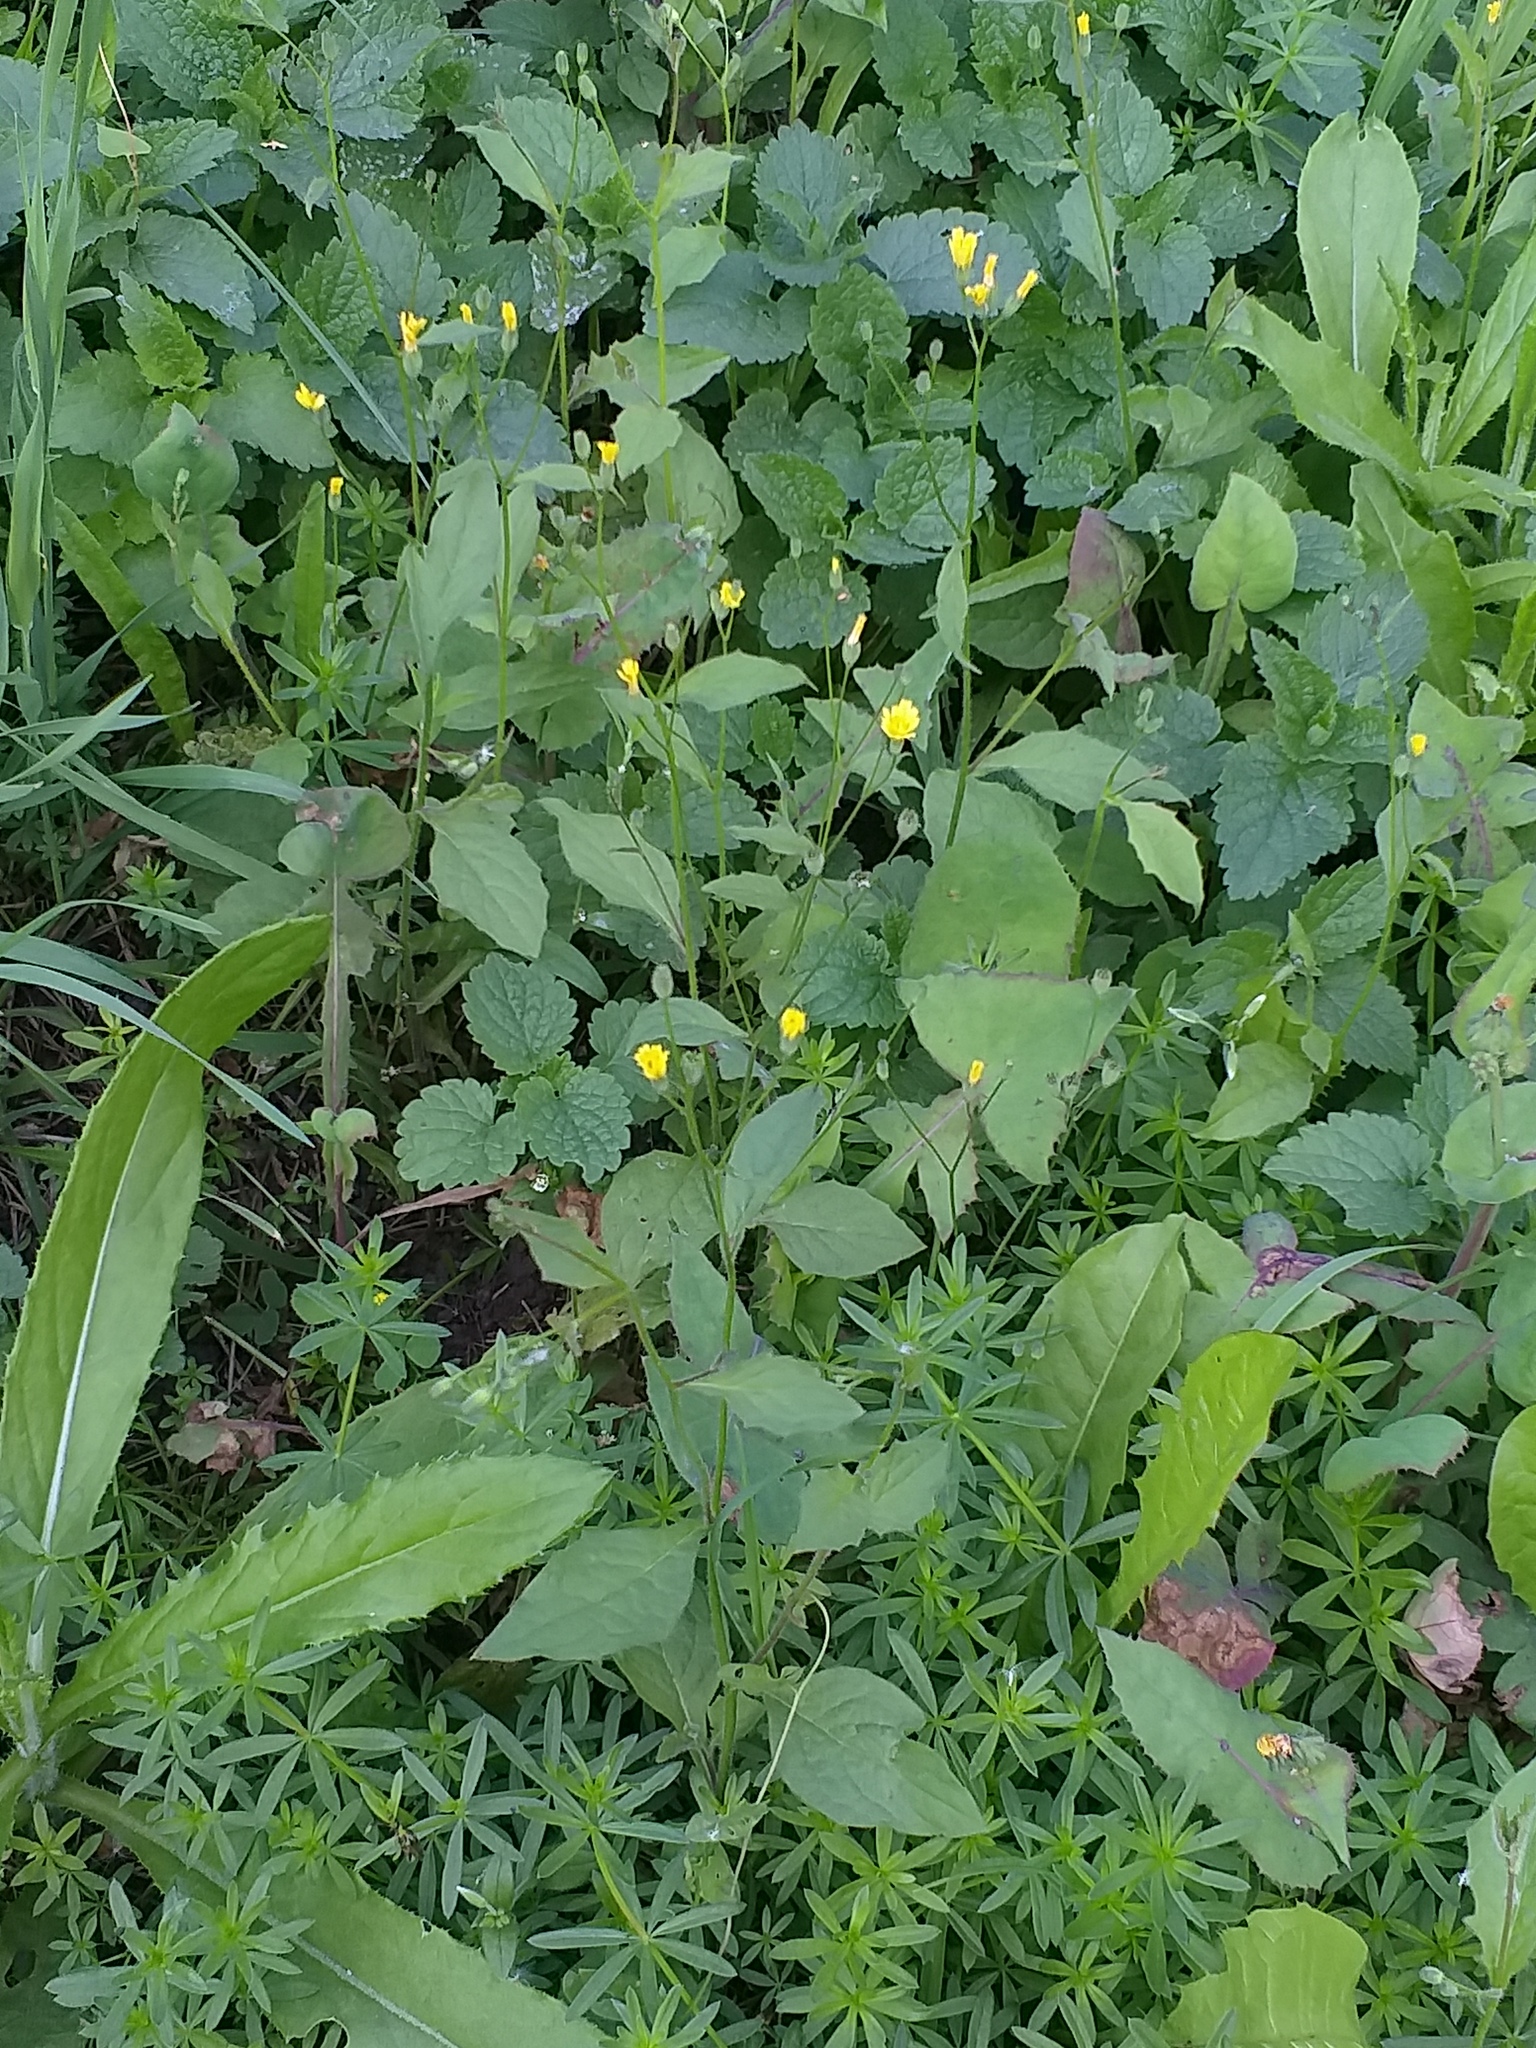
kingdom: Plantae
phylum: Tracheophyta
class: Magnoliopsida
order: Asterales
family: Asteraceae
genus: Lapsana
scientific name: Lapsana communis
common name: Nipplewort
